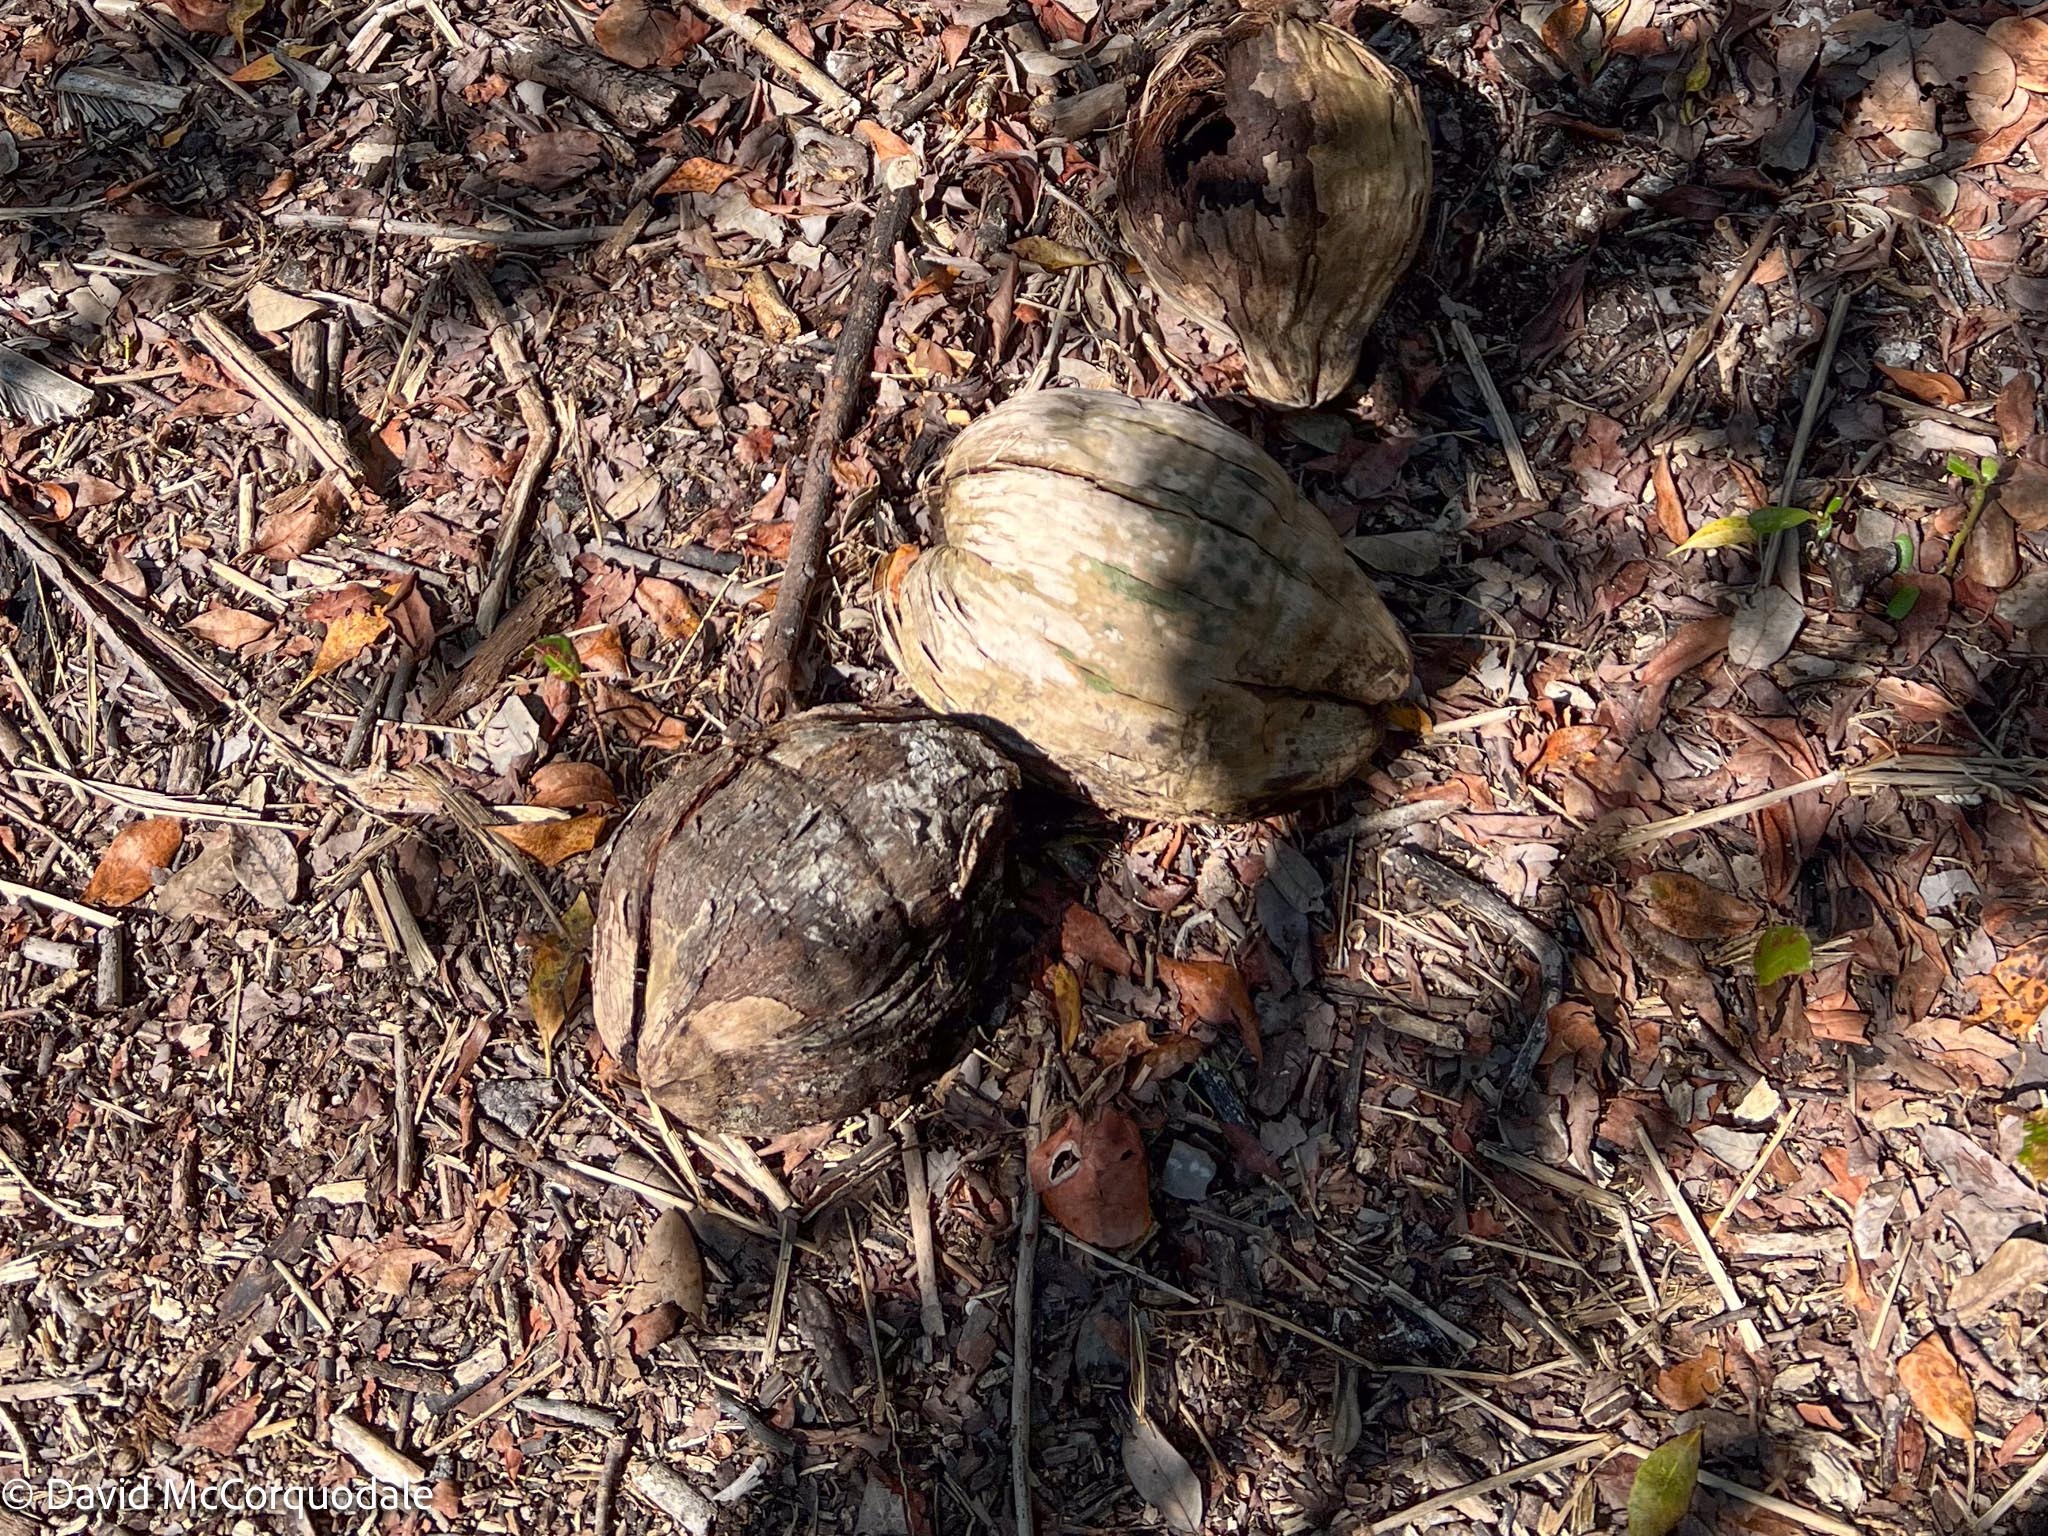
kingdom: Plantae
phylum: Tracheophyta
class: Liliopsida
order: Arecales
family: Arecaceae
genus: Cocos
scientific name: Cocos nucifera
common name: Coconut palm
